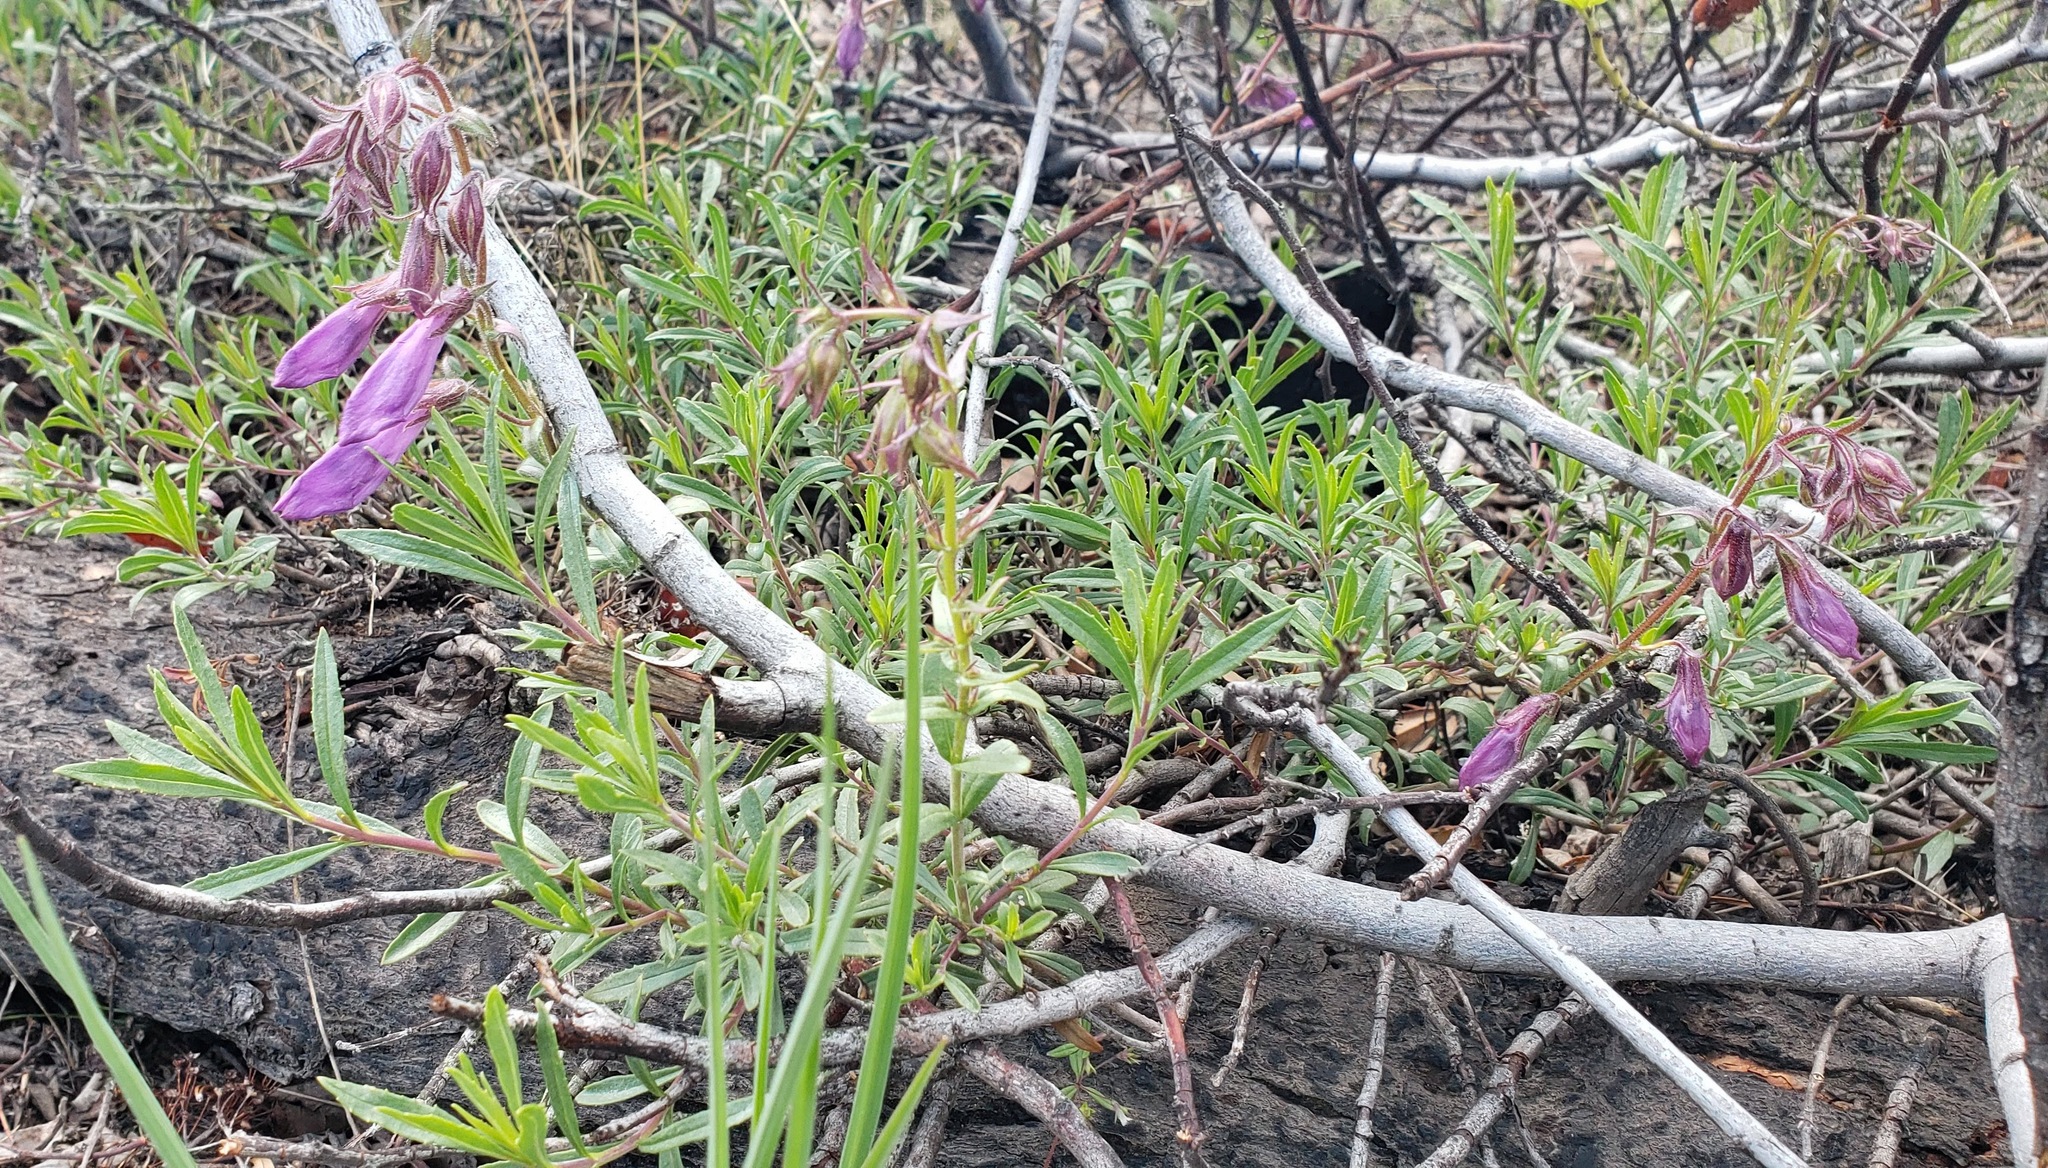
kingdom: Plantae
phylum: Tracheophyta
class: Magnoliopsida
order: Lamiales
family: Plantaginaceae
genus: Penstemon
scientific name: Penstemon fruticosus
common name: Bush penstemon
